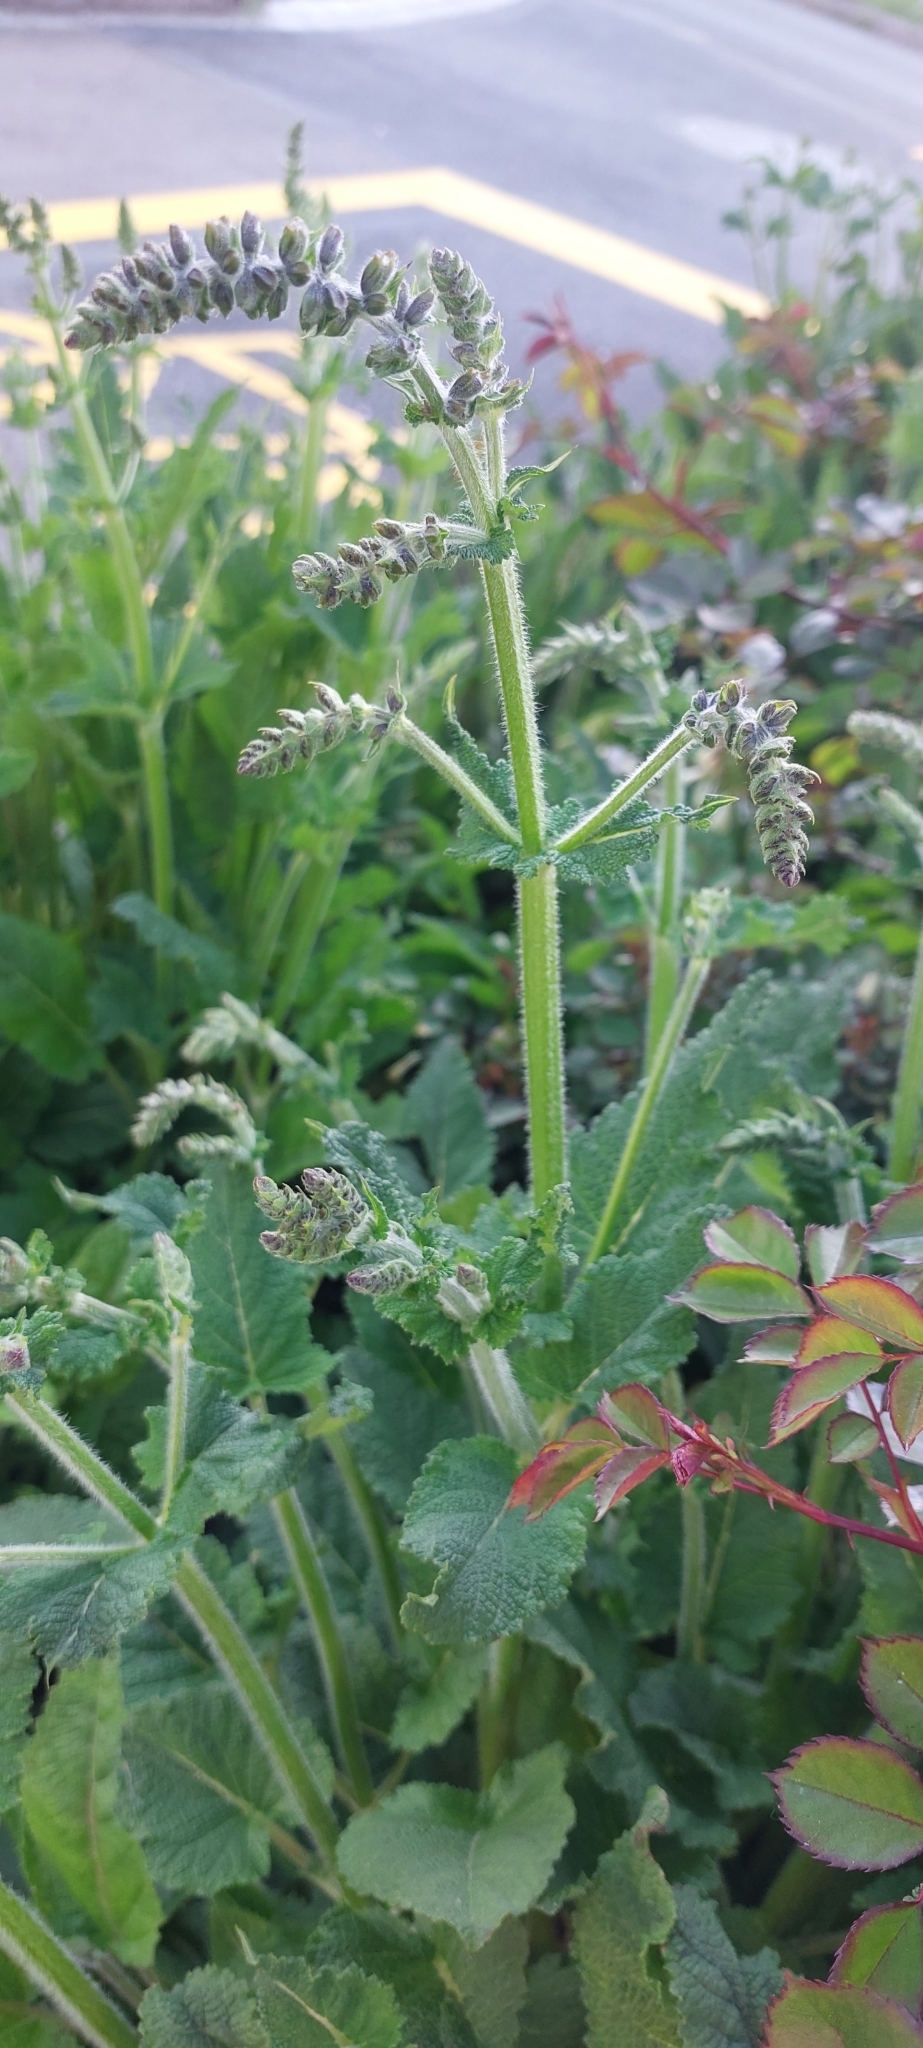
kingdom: Plantae
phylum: Tracheophyta
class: Magnoliopsida
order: Lamiales
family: Lamiaceae
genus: Salvia
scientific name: Salvia pratensis
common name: Meadow sage
